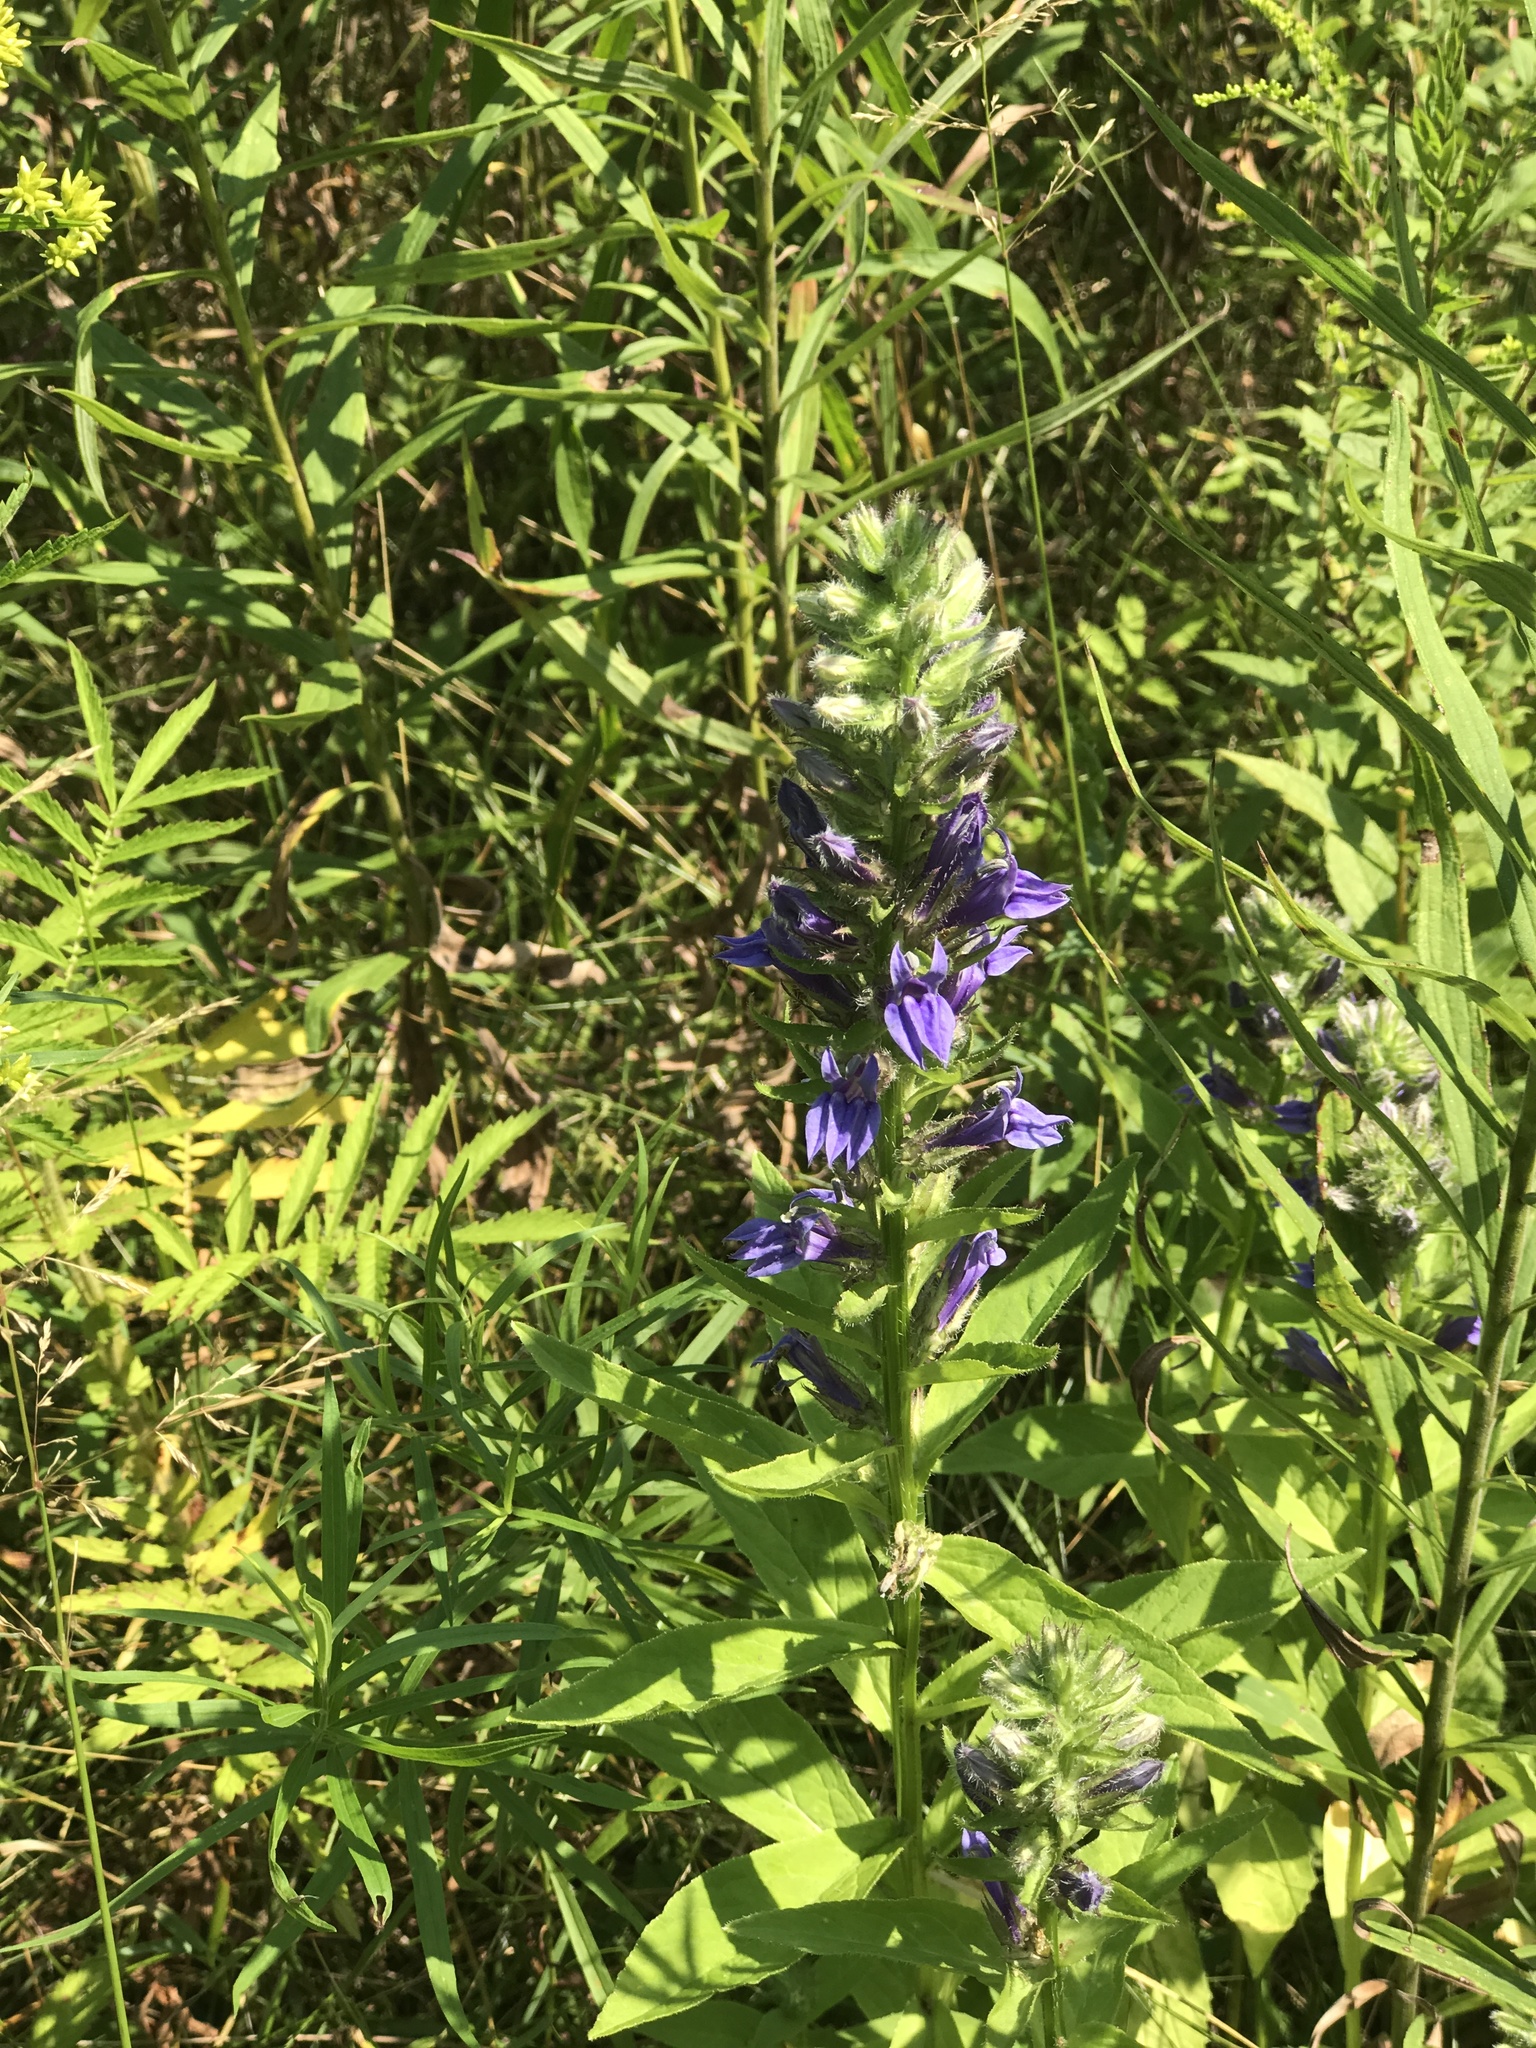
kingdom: Plantae
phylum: Tracheophyta
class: Magnoliopsida
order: Asterales
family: Campanulaceae
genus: Lobelia
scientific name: Lobelia siphilitica
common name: Great lobelia
